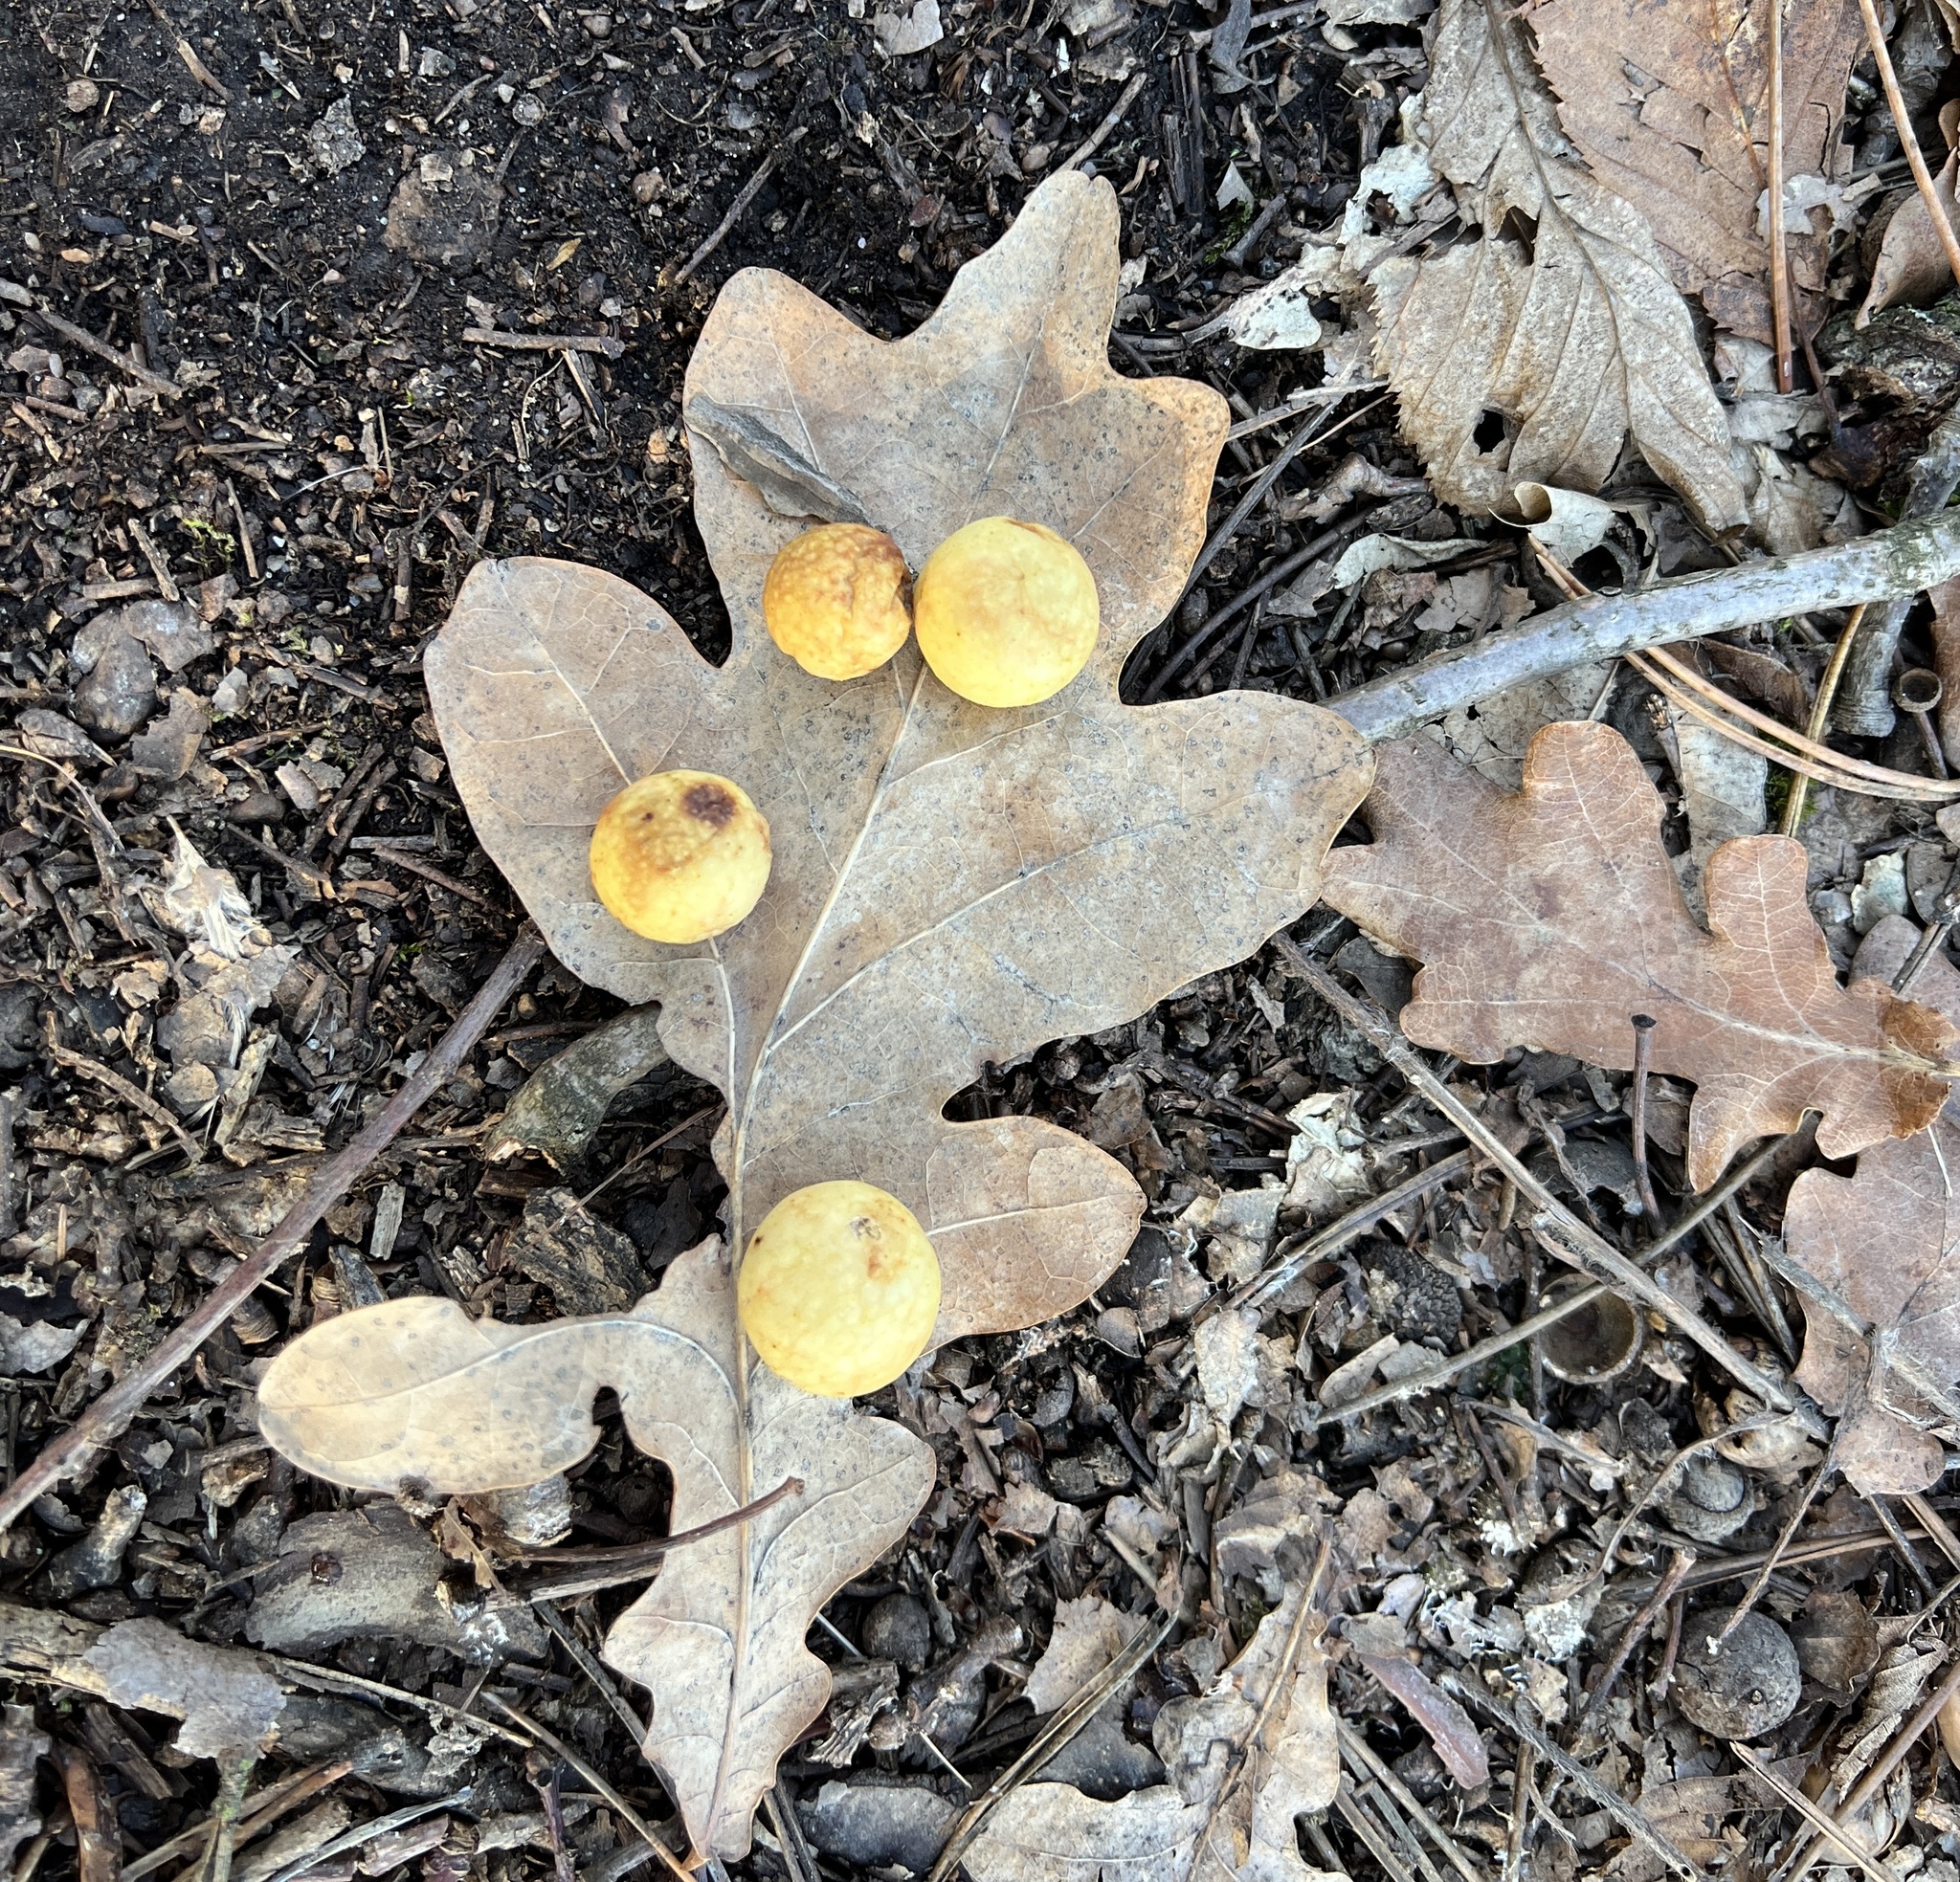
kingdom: Animalia
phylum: Arthropoda
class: Insecta
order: Hymenoptera
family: Cynipidae
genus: Cynips
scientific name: Cynips quercusfolii
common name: Cherry gall
